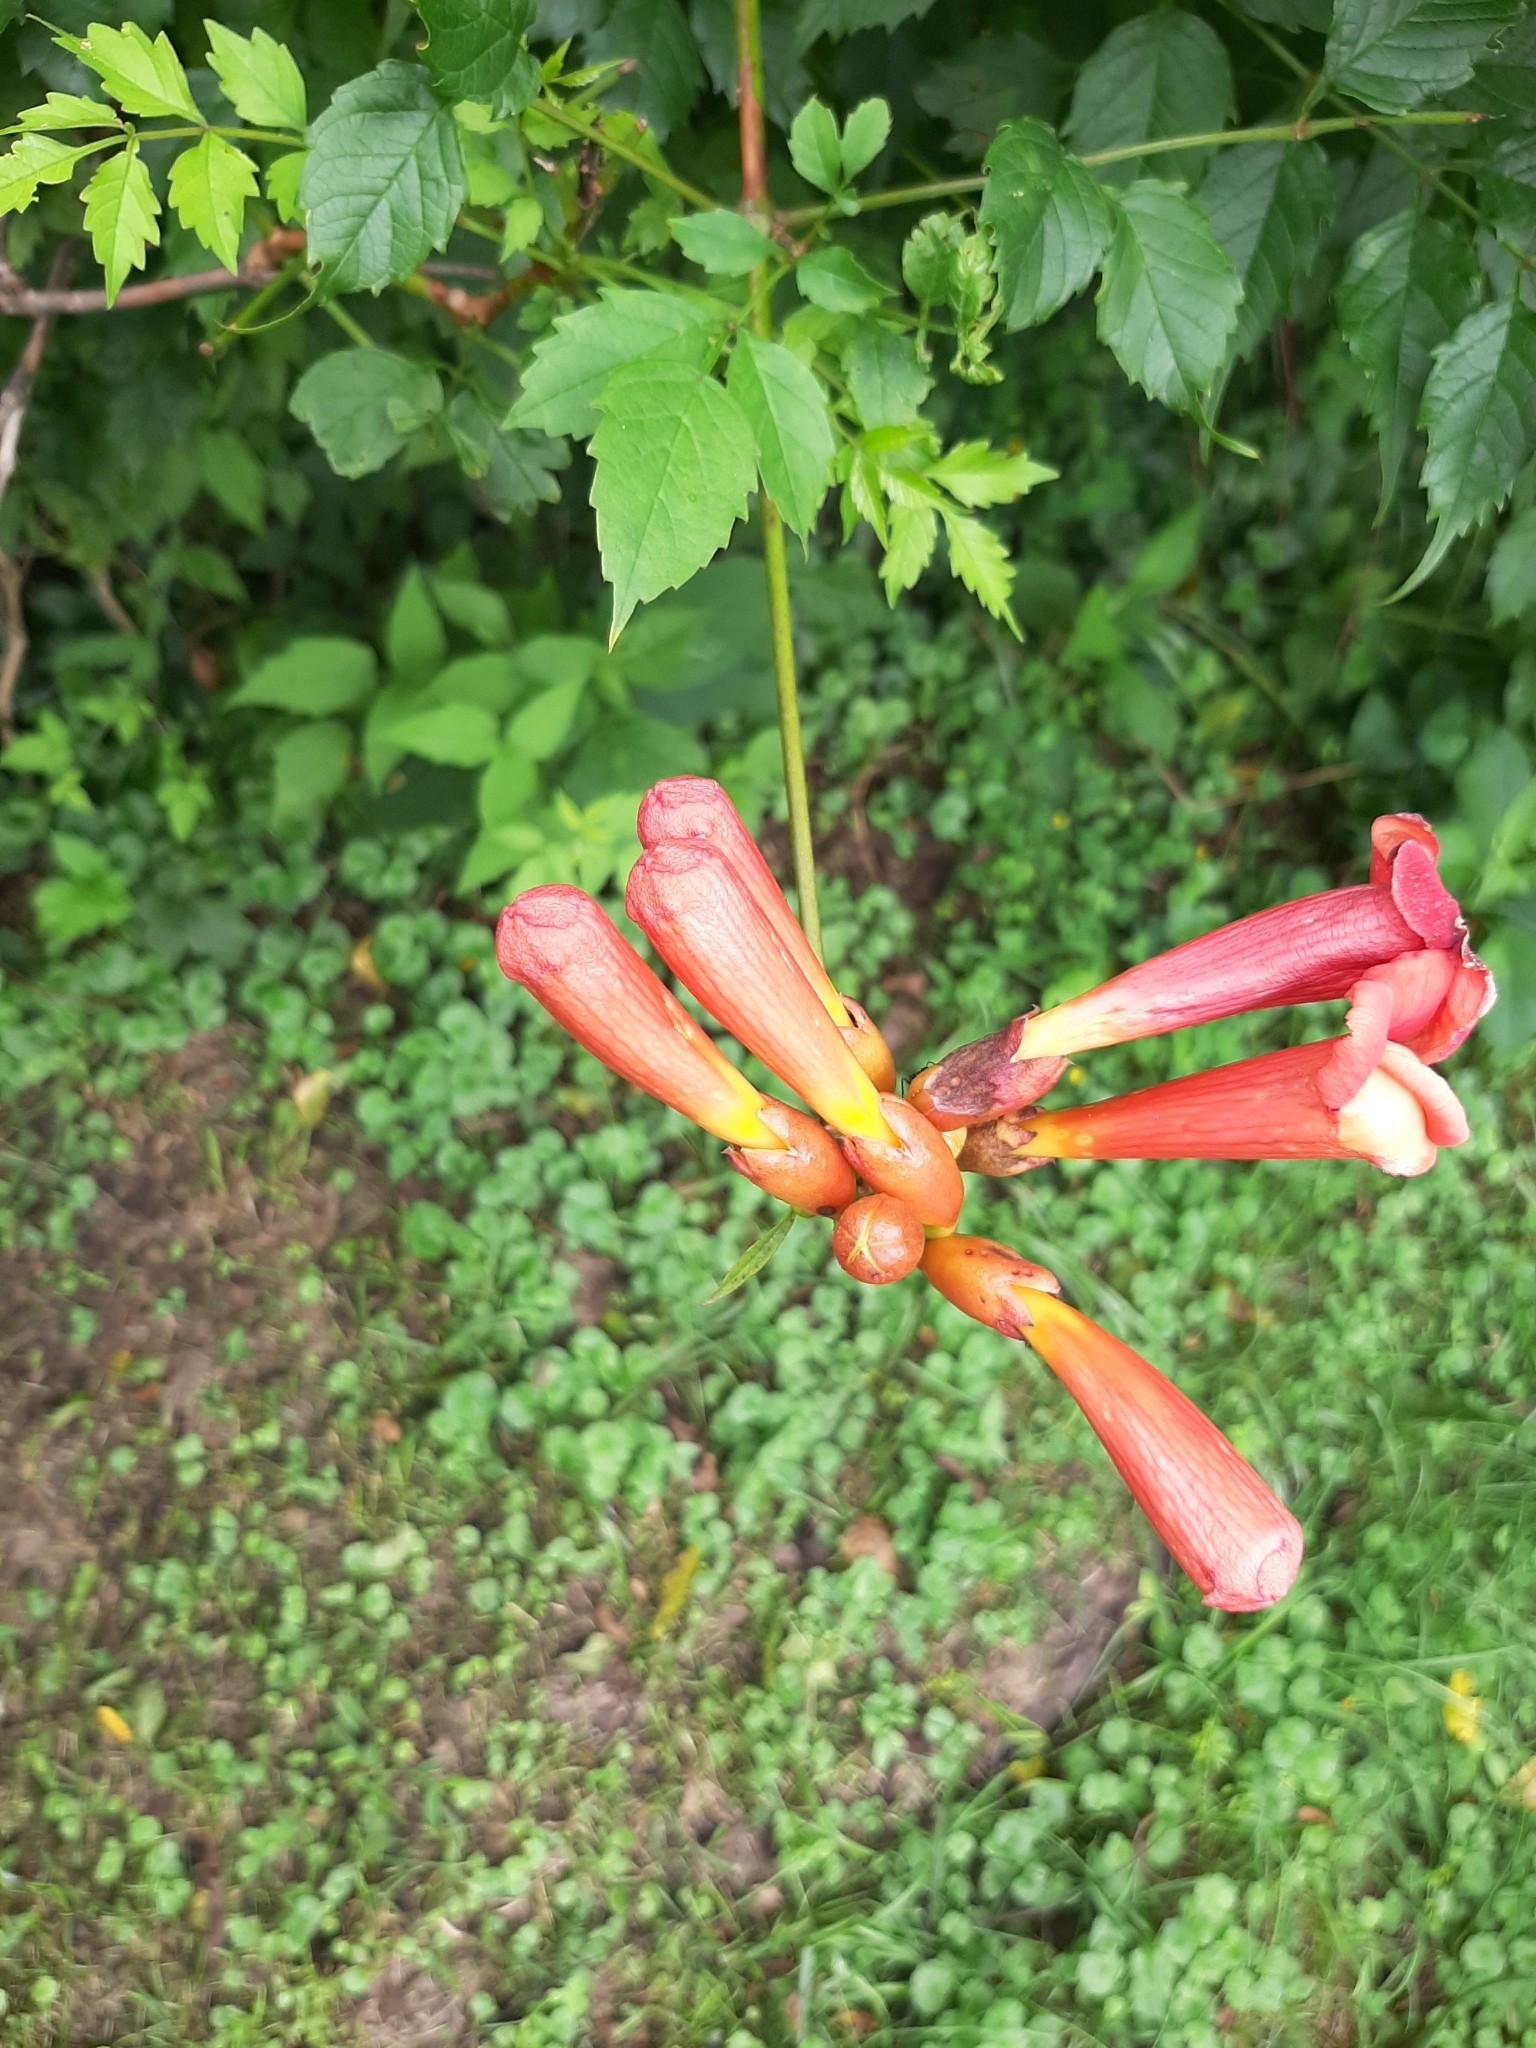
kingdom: Plantae
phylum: Tracheophyta
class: Magnoliopsida
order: Lamiales
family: Bignoniaceae
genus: Campsis
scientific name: Campsis radicans
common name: Trumpet-creeper
